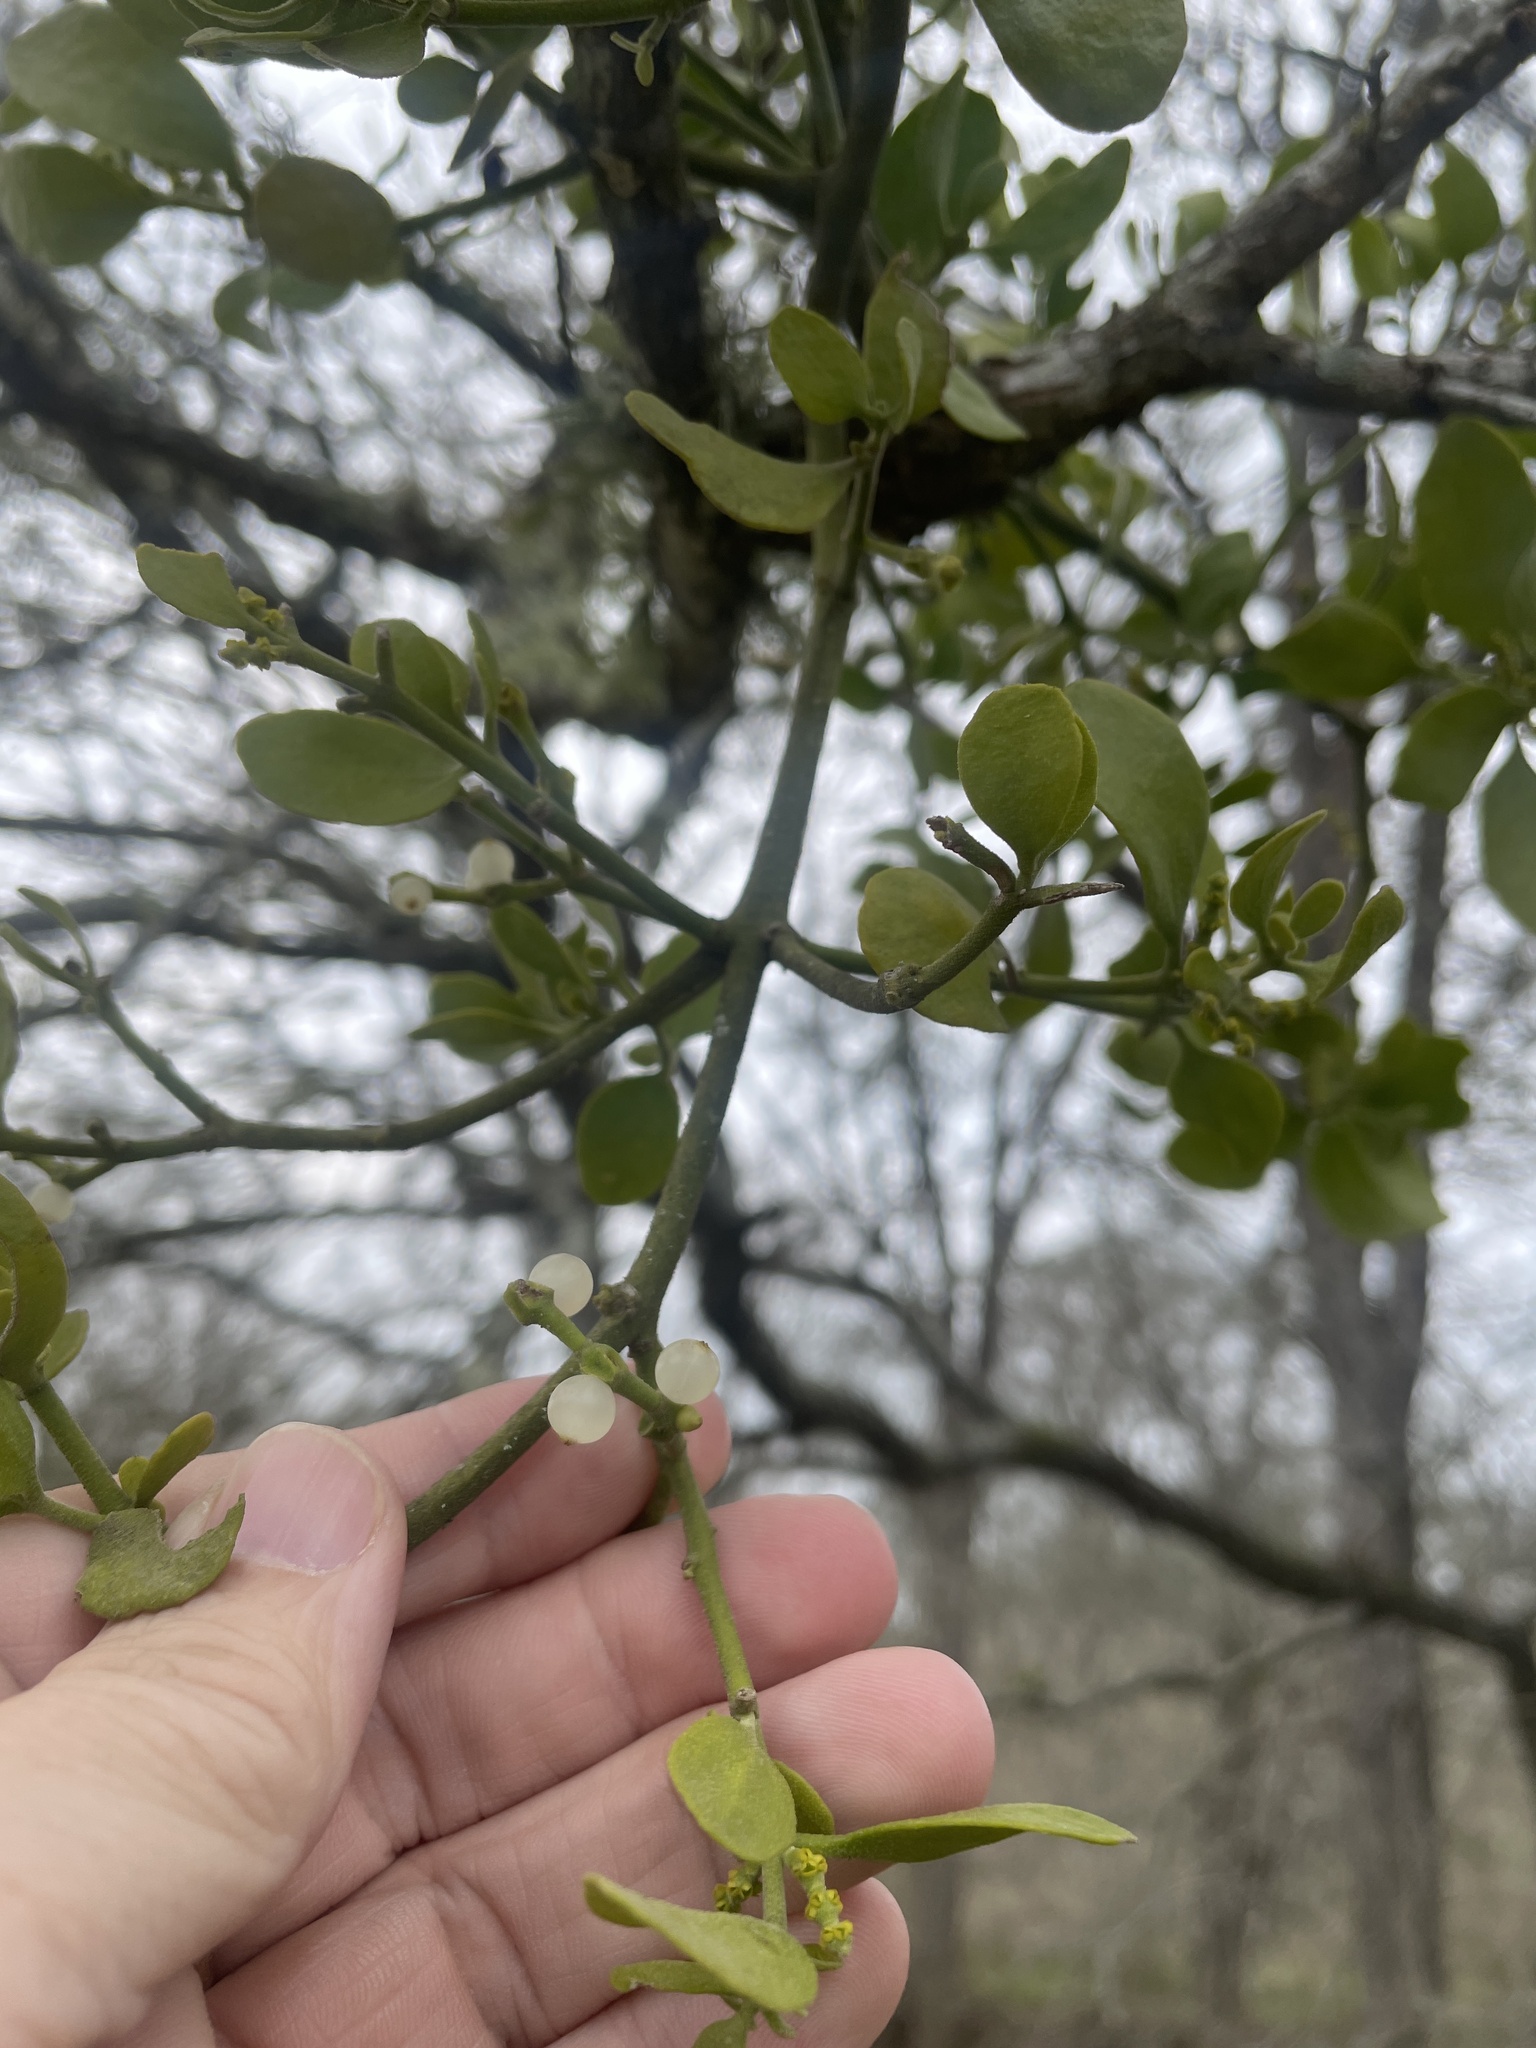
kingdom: Plantae
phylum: Tracheophyta
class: Magnoliopsida
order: Santalales
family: Viscaceae
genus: Phoradendron
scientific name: Phoradendron leucarpum
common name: Pacific mistletoe
